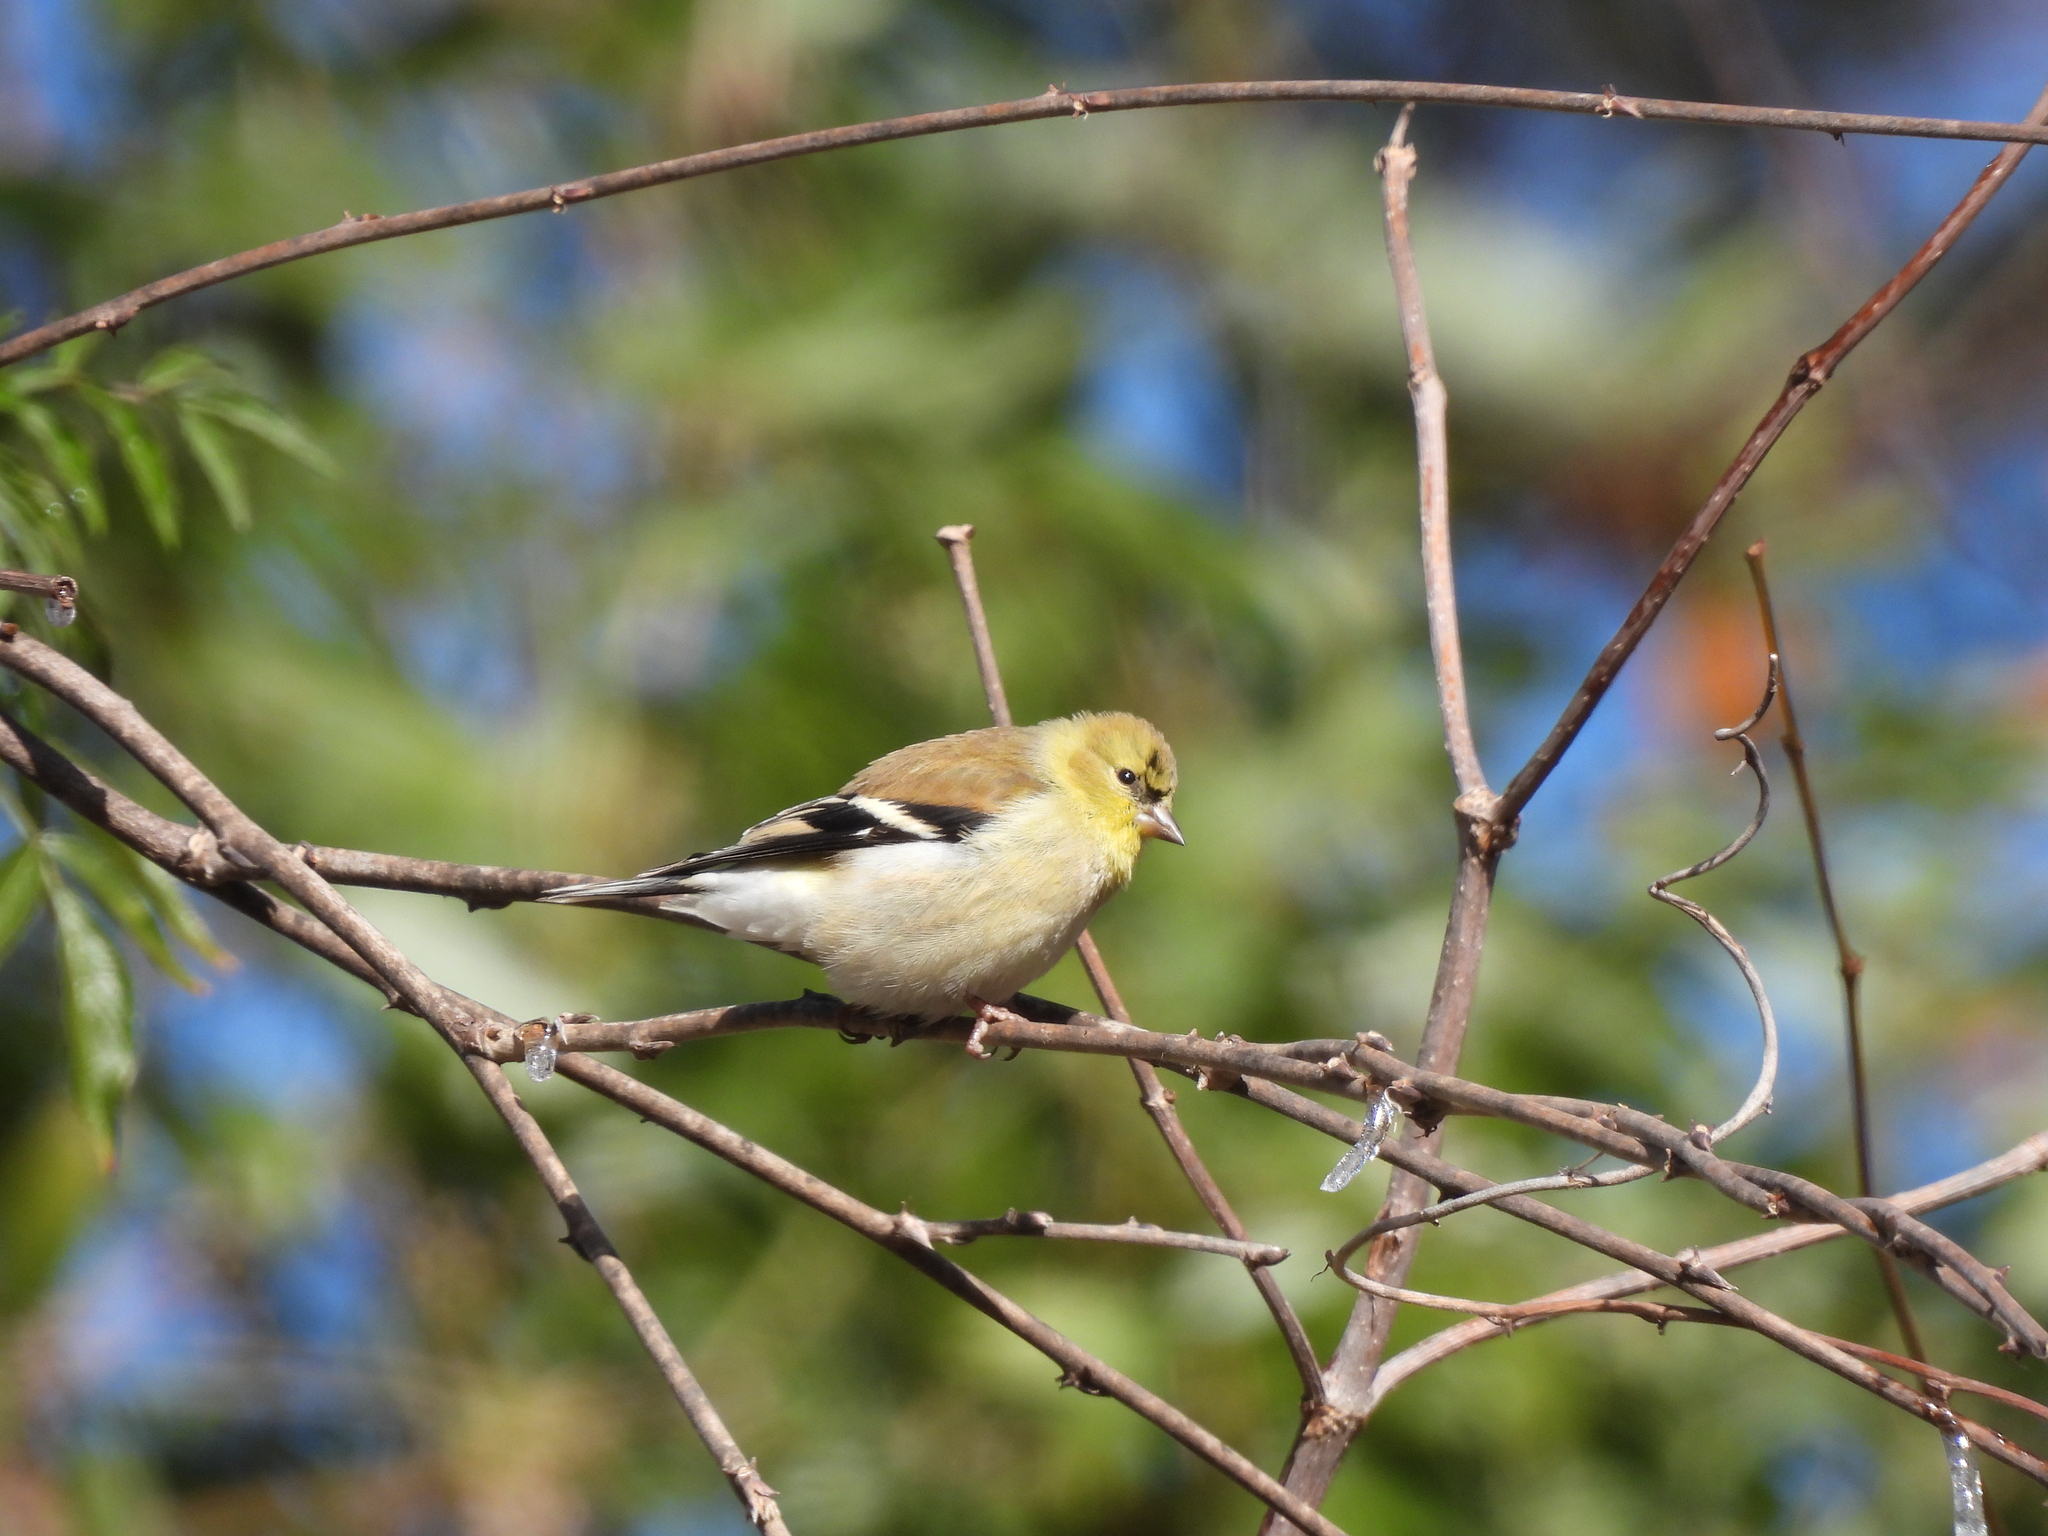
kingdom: Animalia
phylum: Chordata
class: Aves
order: Passeriformes
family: Fringillidae
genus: Spinus
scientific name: Spinus tristis
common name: American goldfinch
